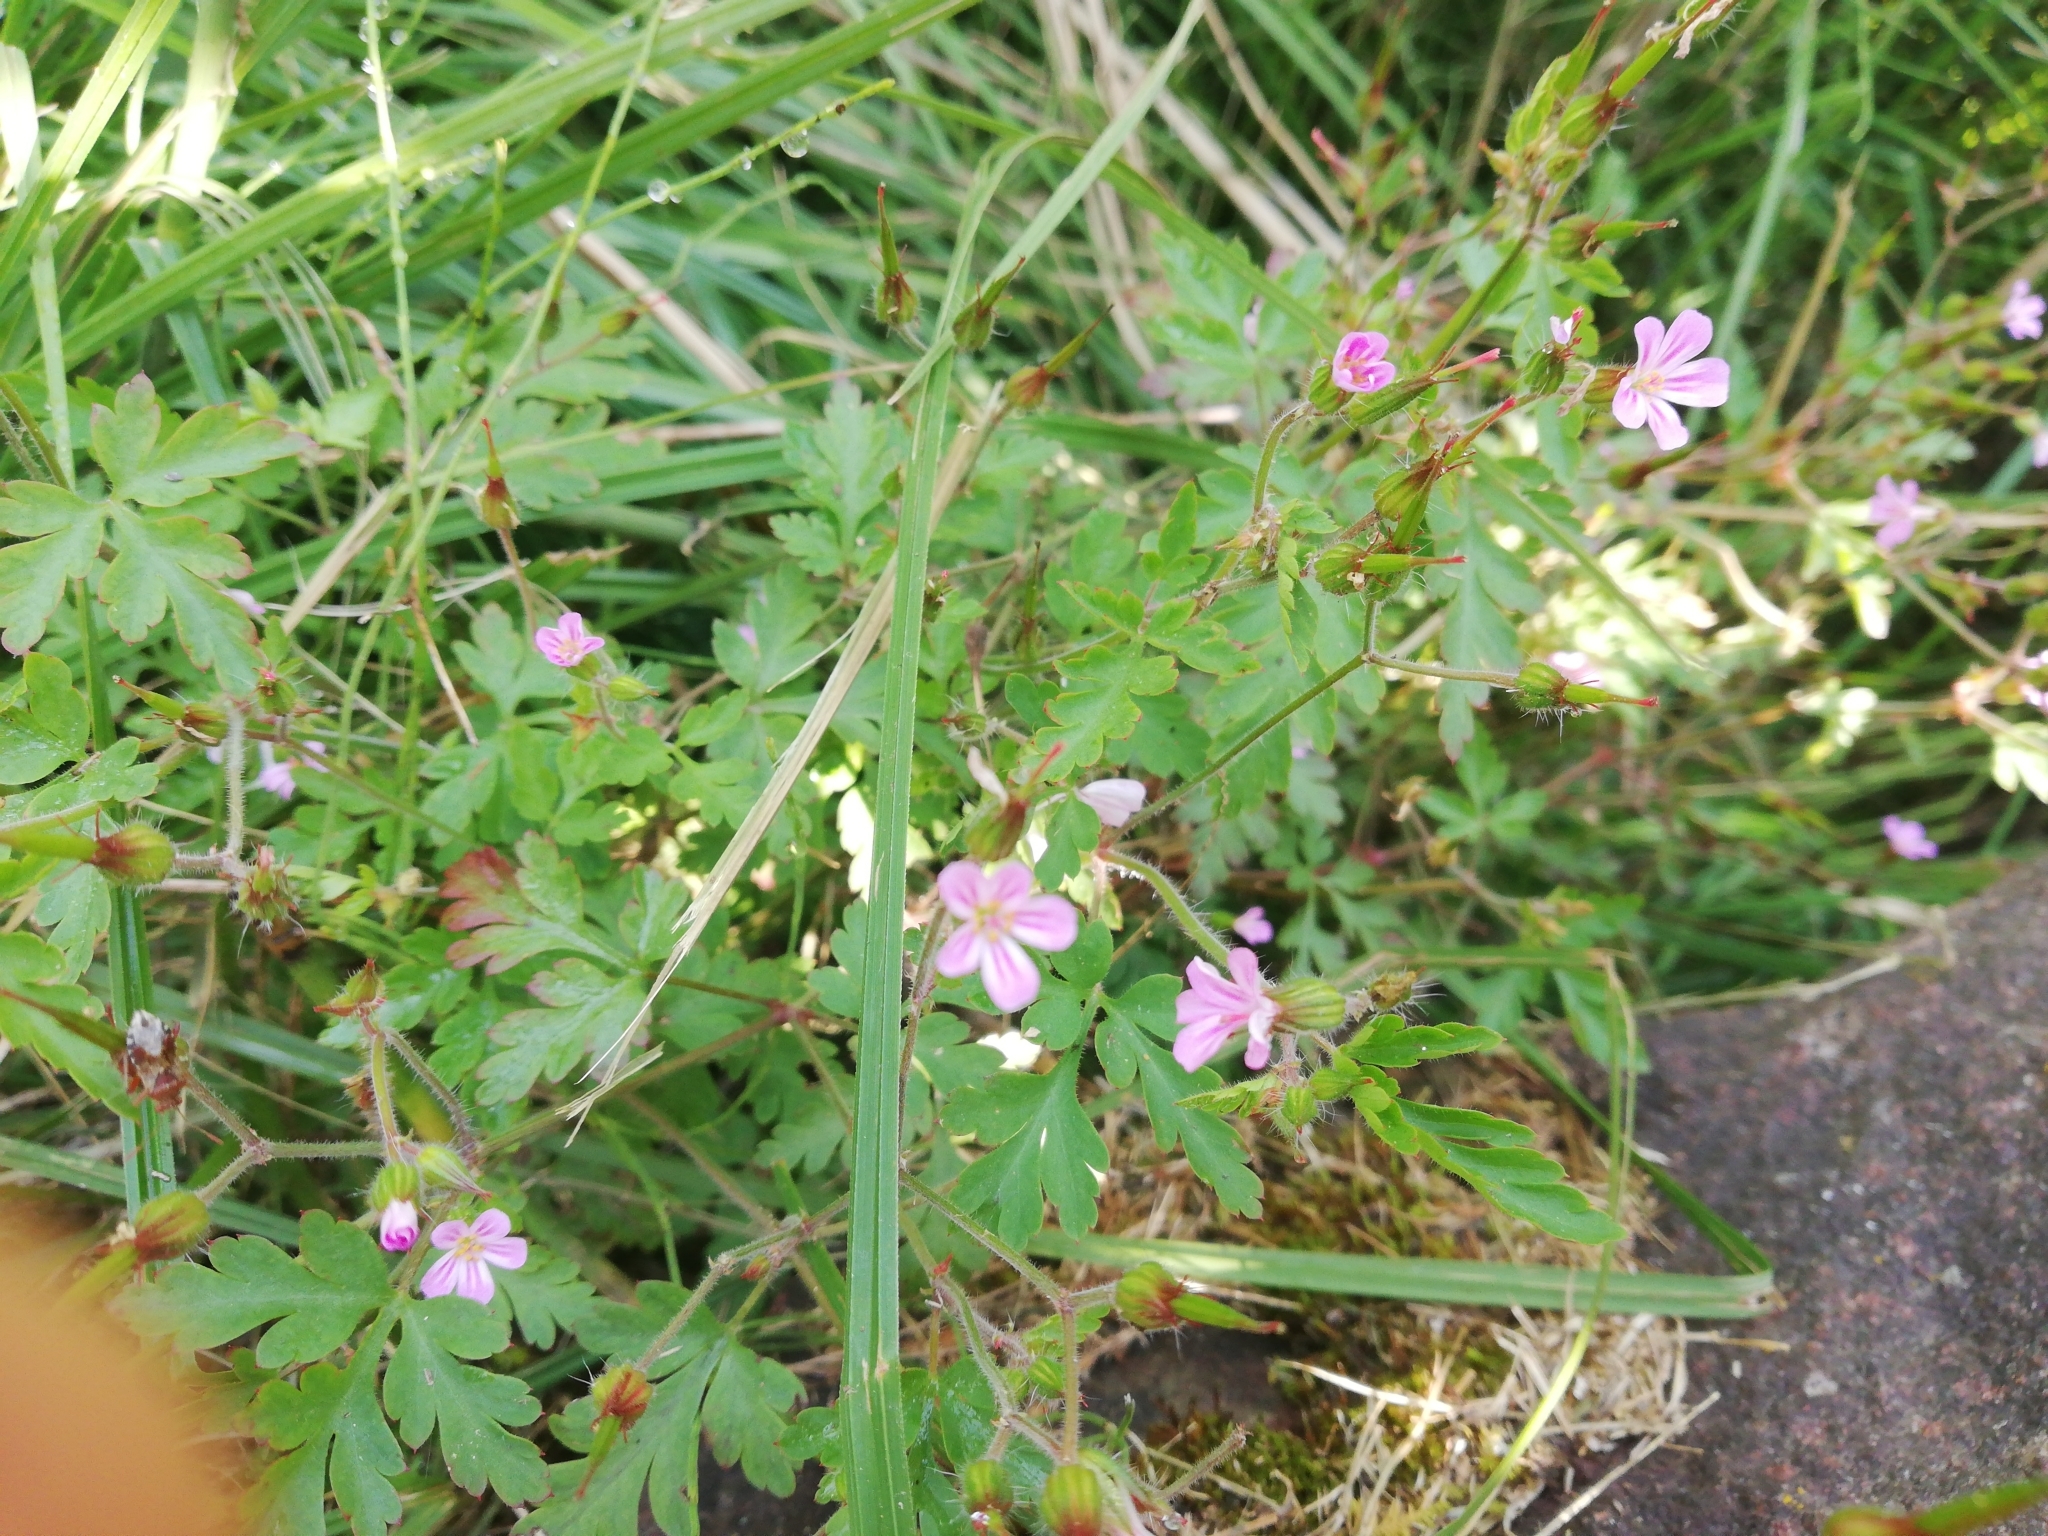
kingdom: Plantae
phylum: Tracheophyta
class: Magnoliopsida
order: Geraniales
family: Geraniaceae
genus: Geranium
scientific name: Geranium robertianum
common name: Herb-robert
